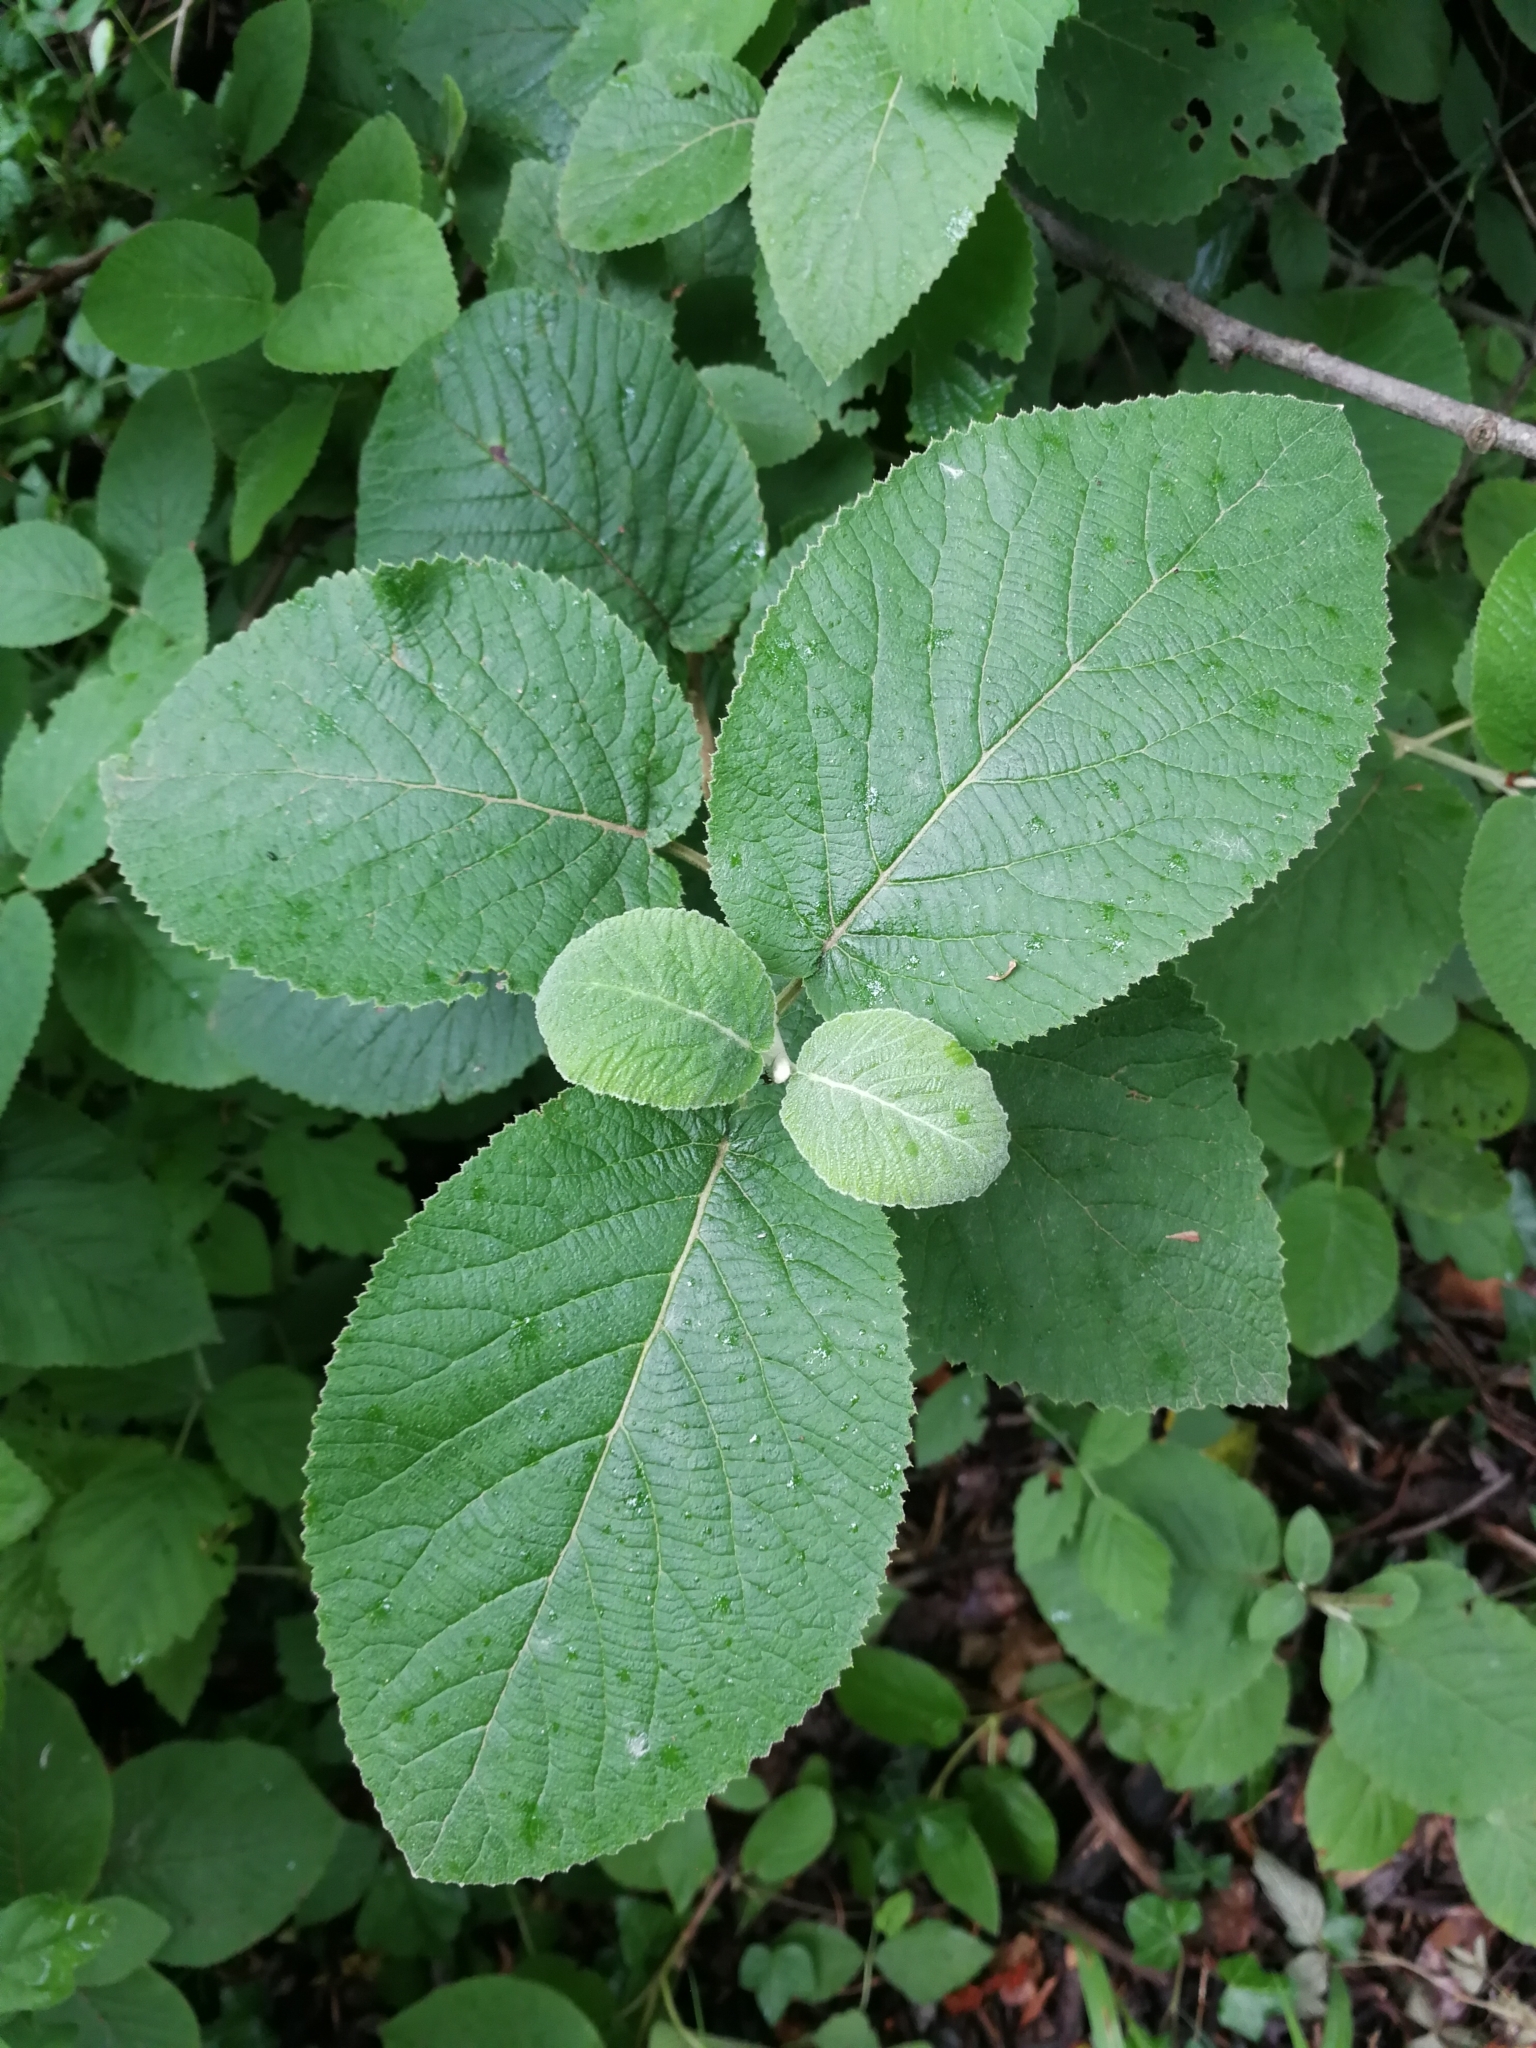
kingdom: Plantae
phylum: Tracheophyta
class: Magnoliopsida
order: Dipsacales
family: Viburnaceae
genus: Viburnum
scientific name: Viburnum lantana
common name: Wayfaring tree
